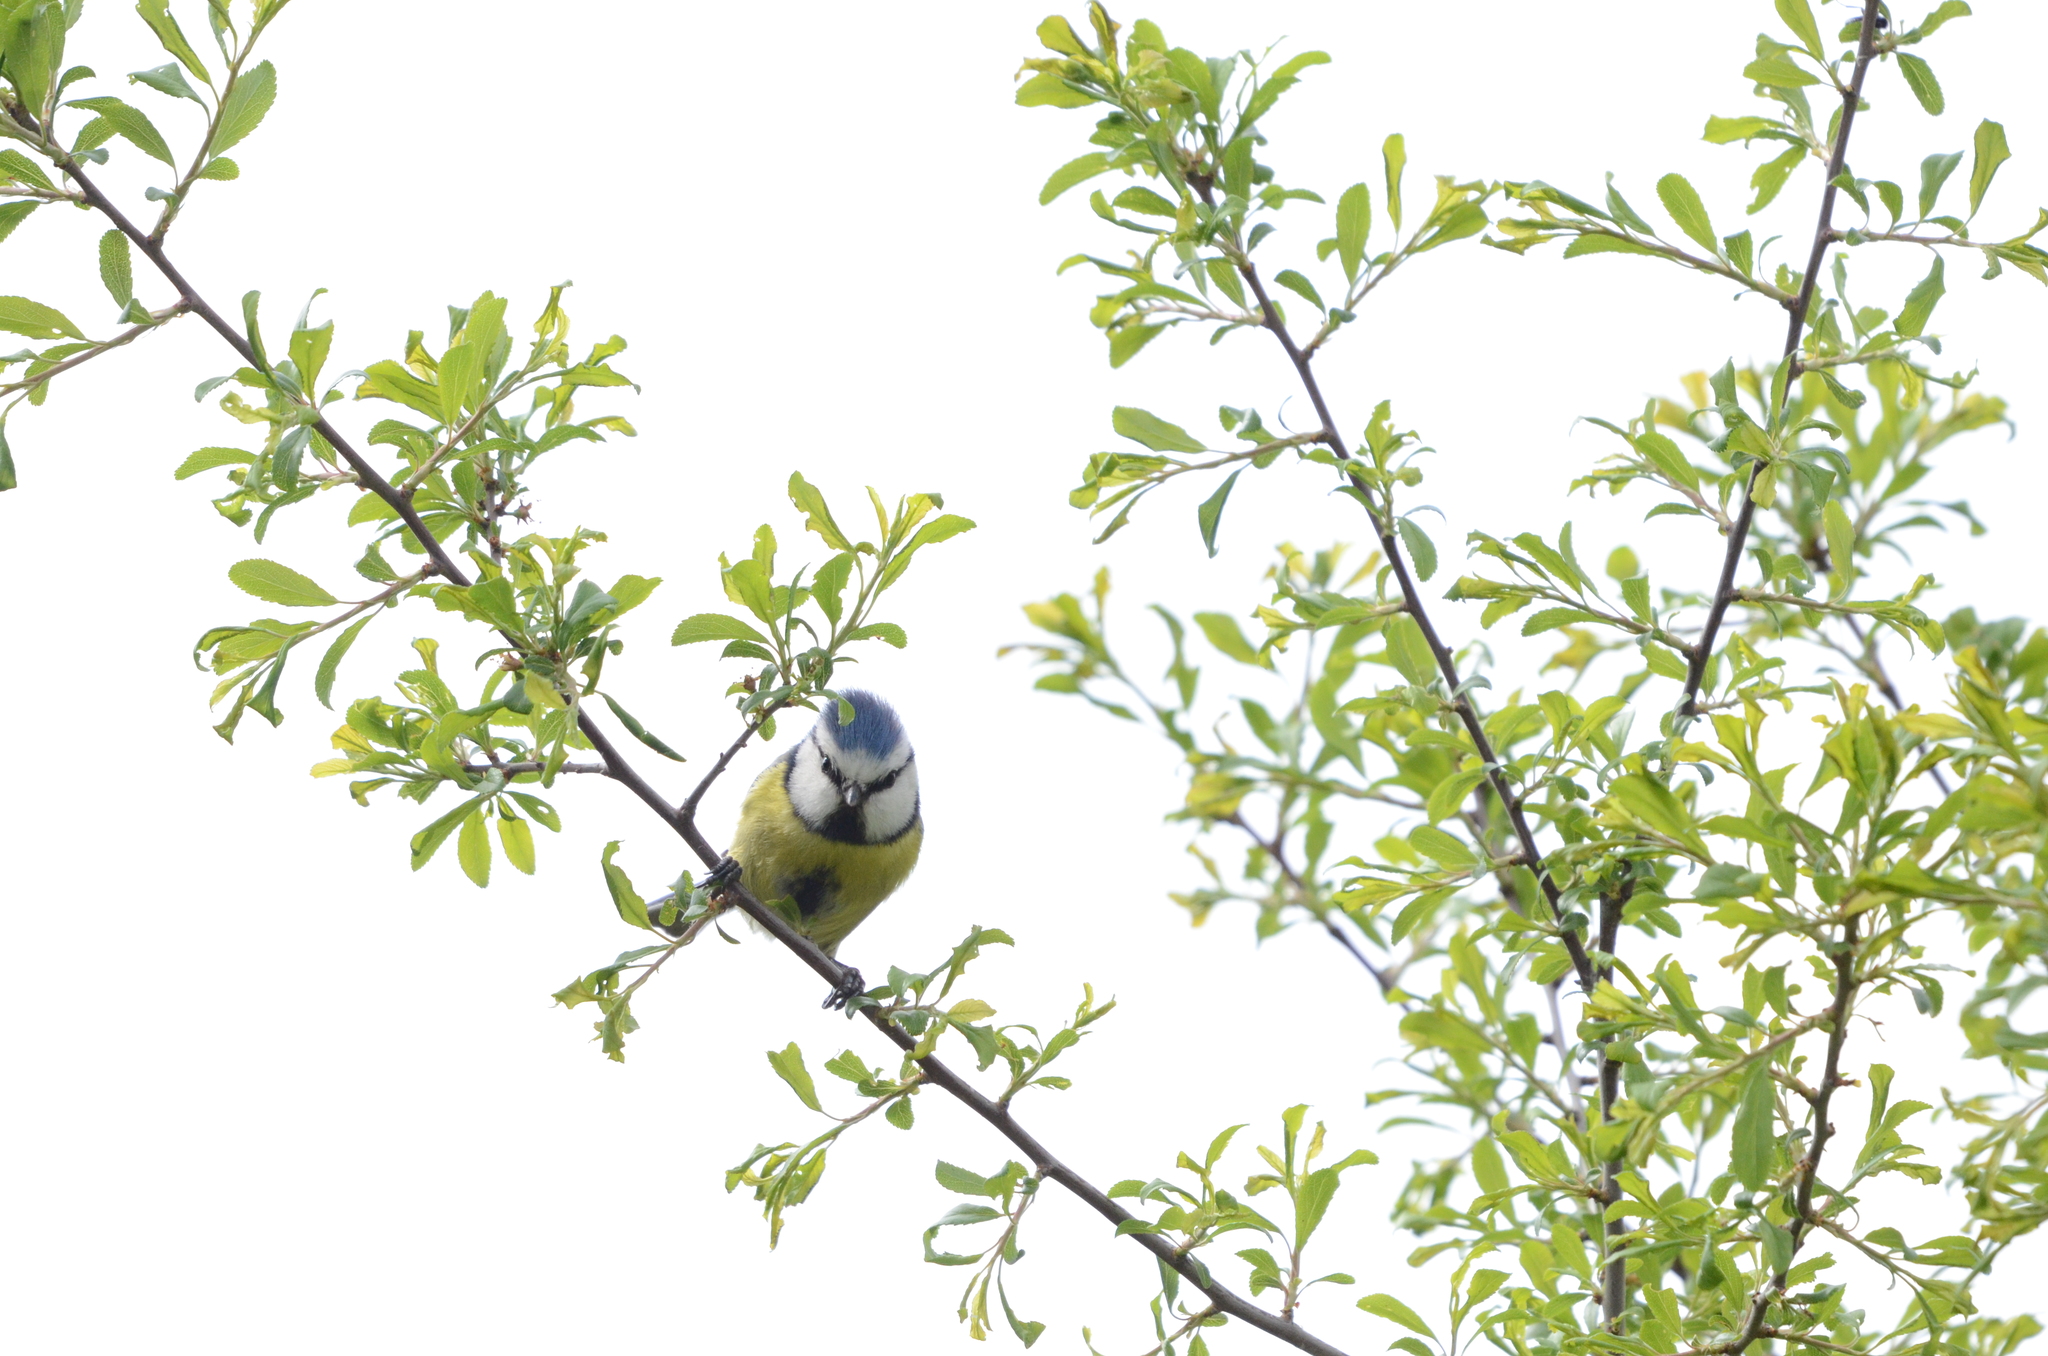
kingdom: Animalia
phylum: Chordata
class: Aves
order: Passeriformes
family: Paridae
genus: Cyanistes
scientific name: Cyanistes caeruleus
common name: Eurasian blue tit
